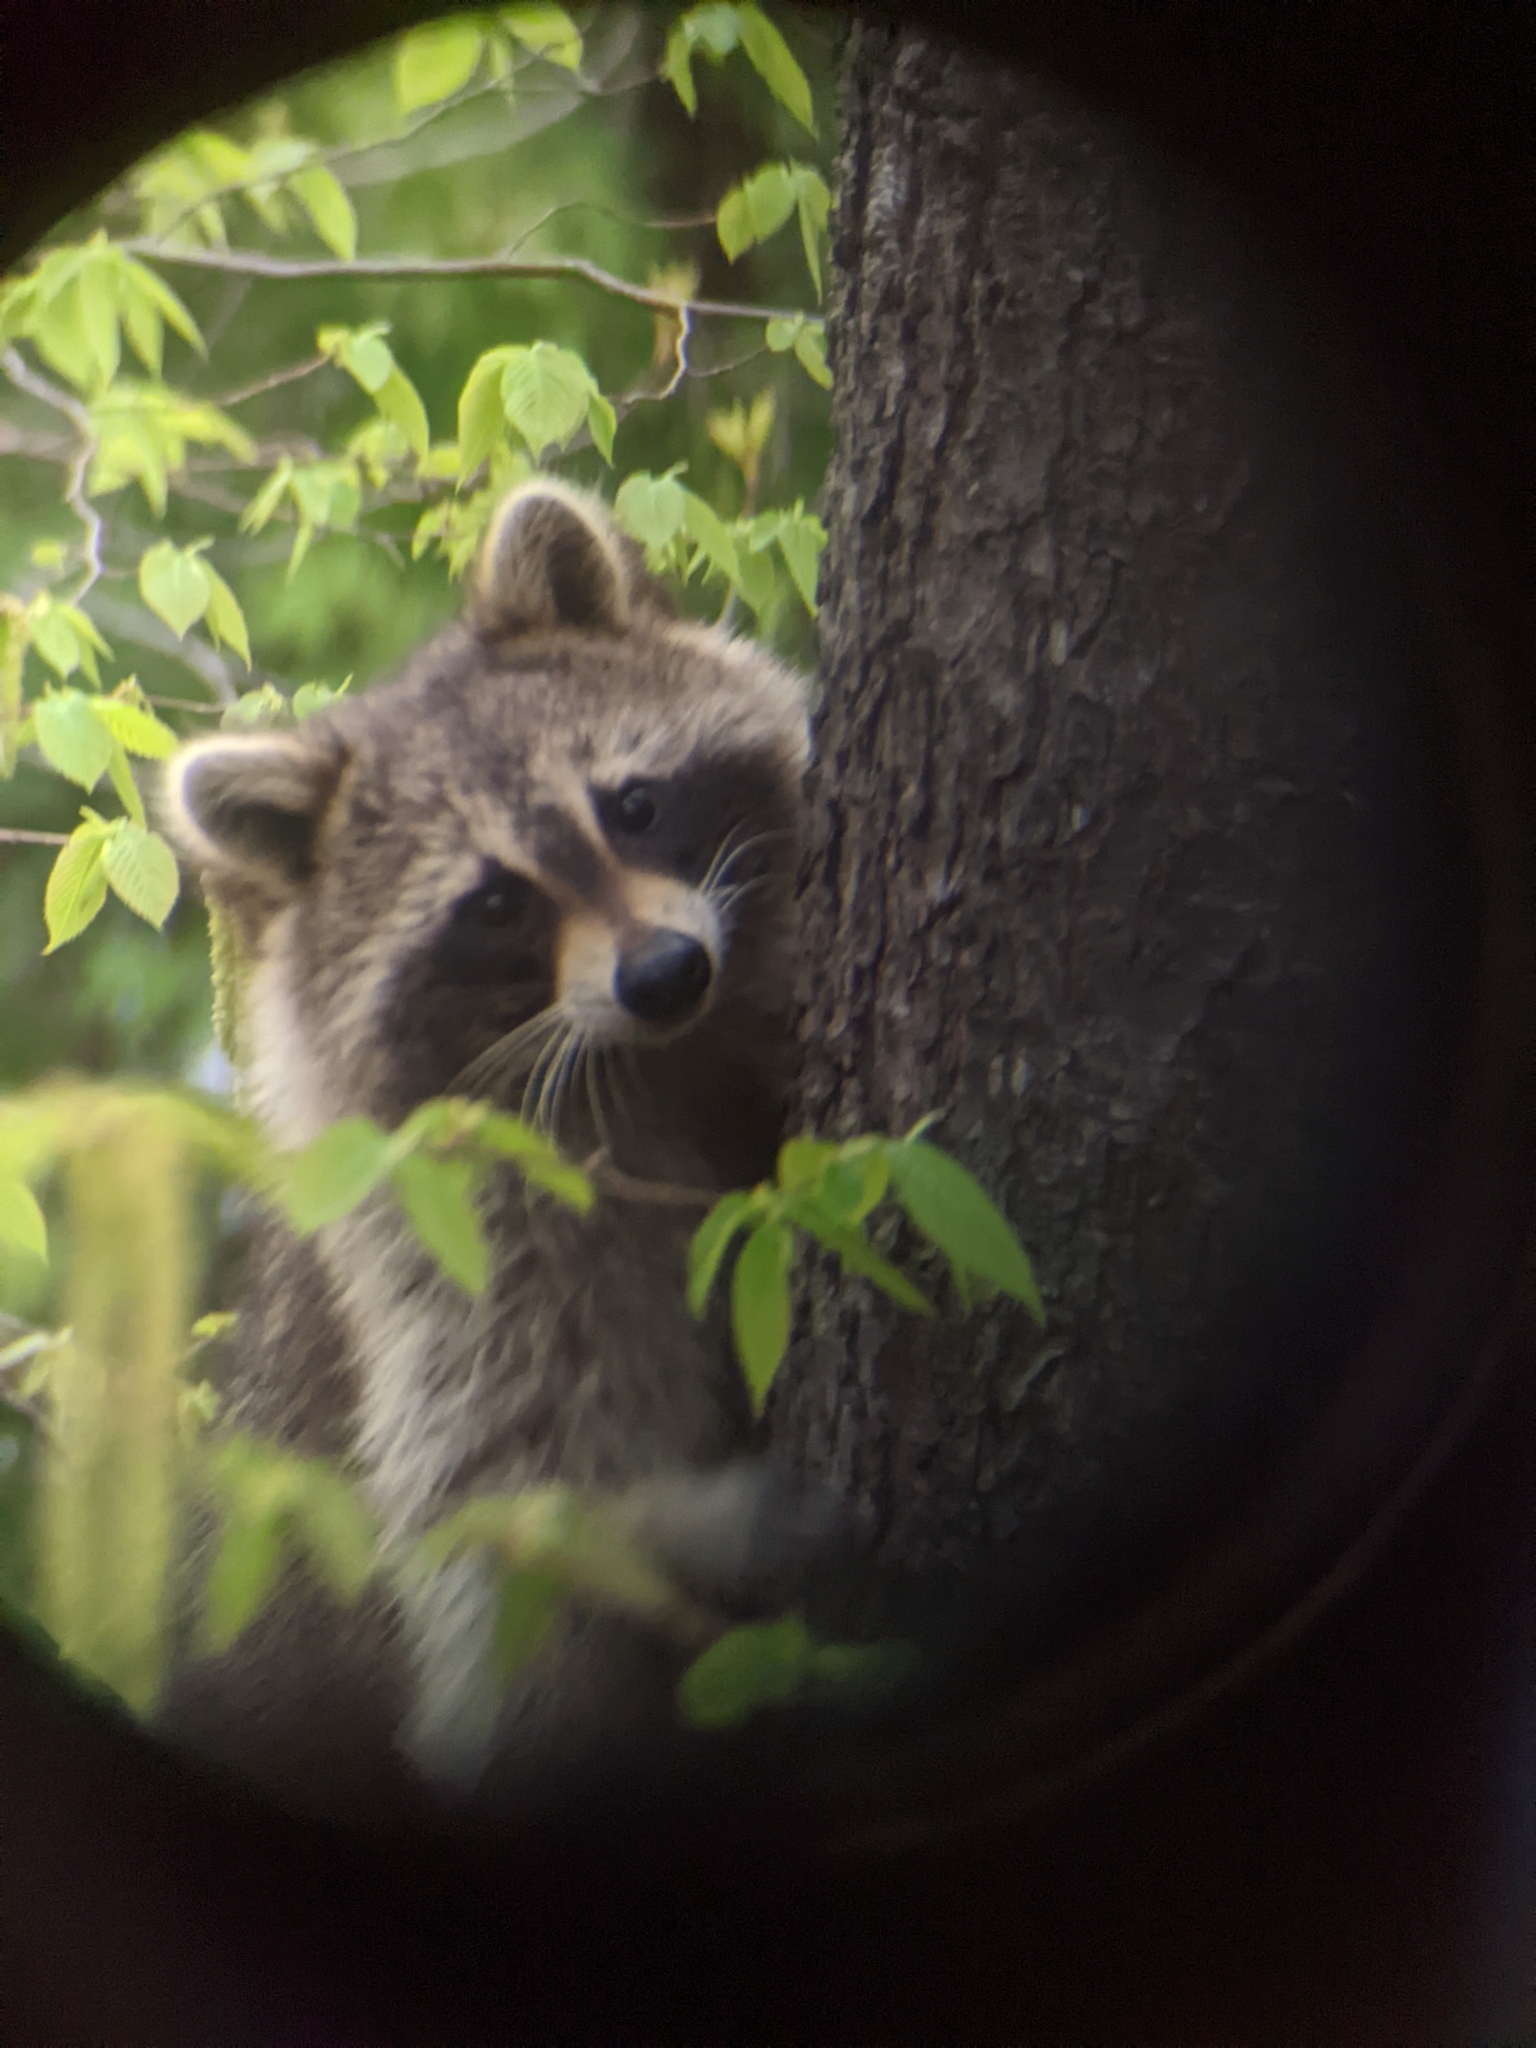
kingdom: Animalia
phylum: Chordata
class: Mammalia
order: Carnivora
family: Procyonidae
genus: Procyon
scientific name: Procyon lotor
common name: Raccoon
